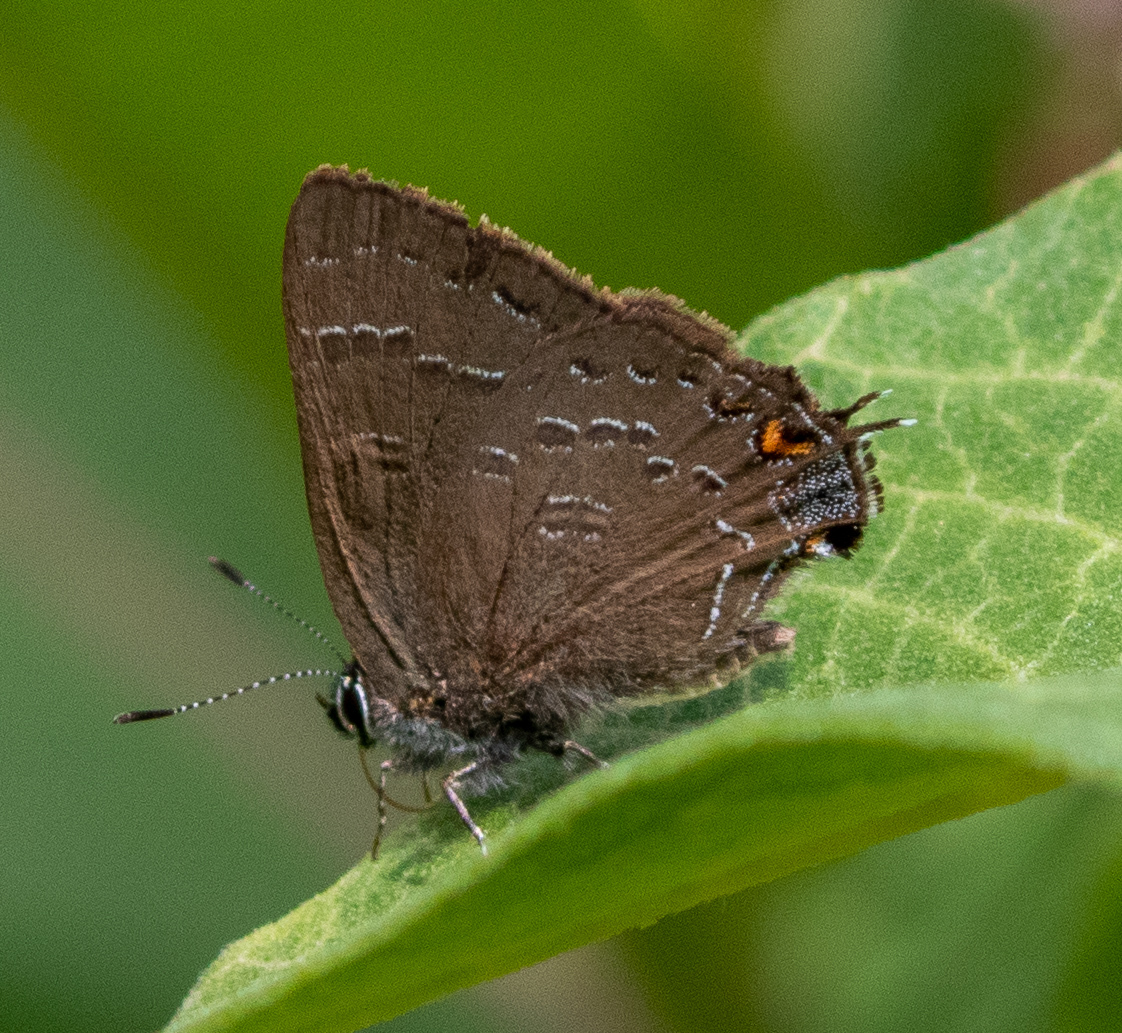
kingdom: Animalia
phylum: Arthropoda
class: Insecta
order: Lepidoptera
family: Lycaenidae
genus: Satyrium
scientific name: Satyrium calanus
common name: Banded hairstreak
